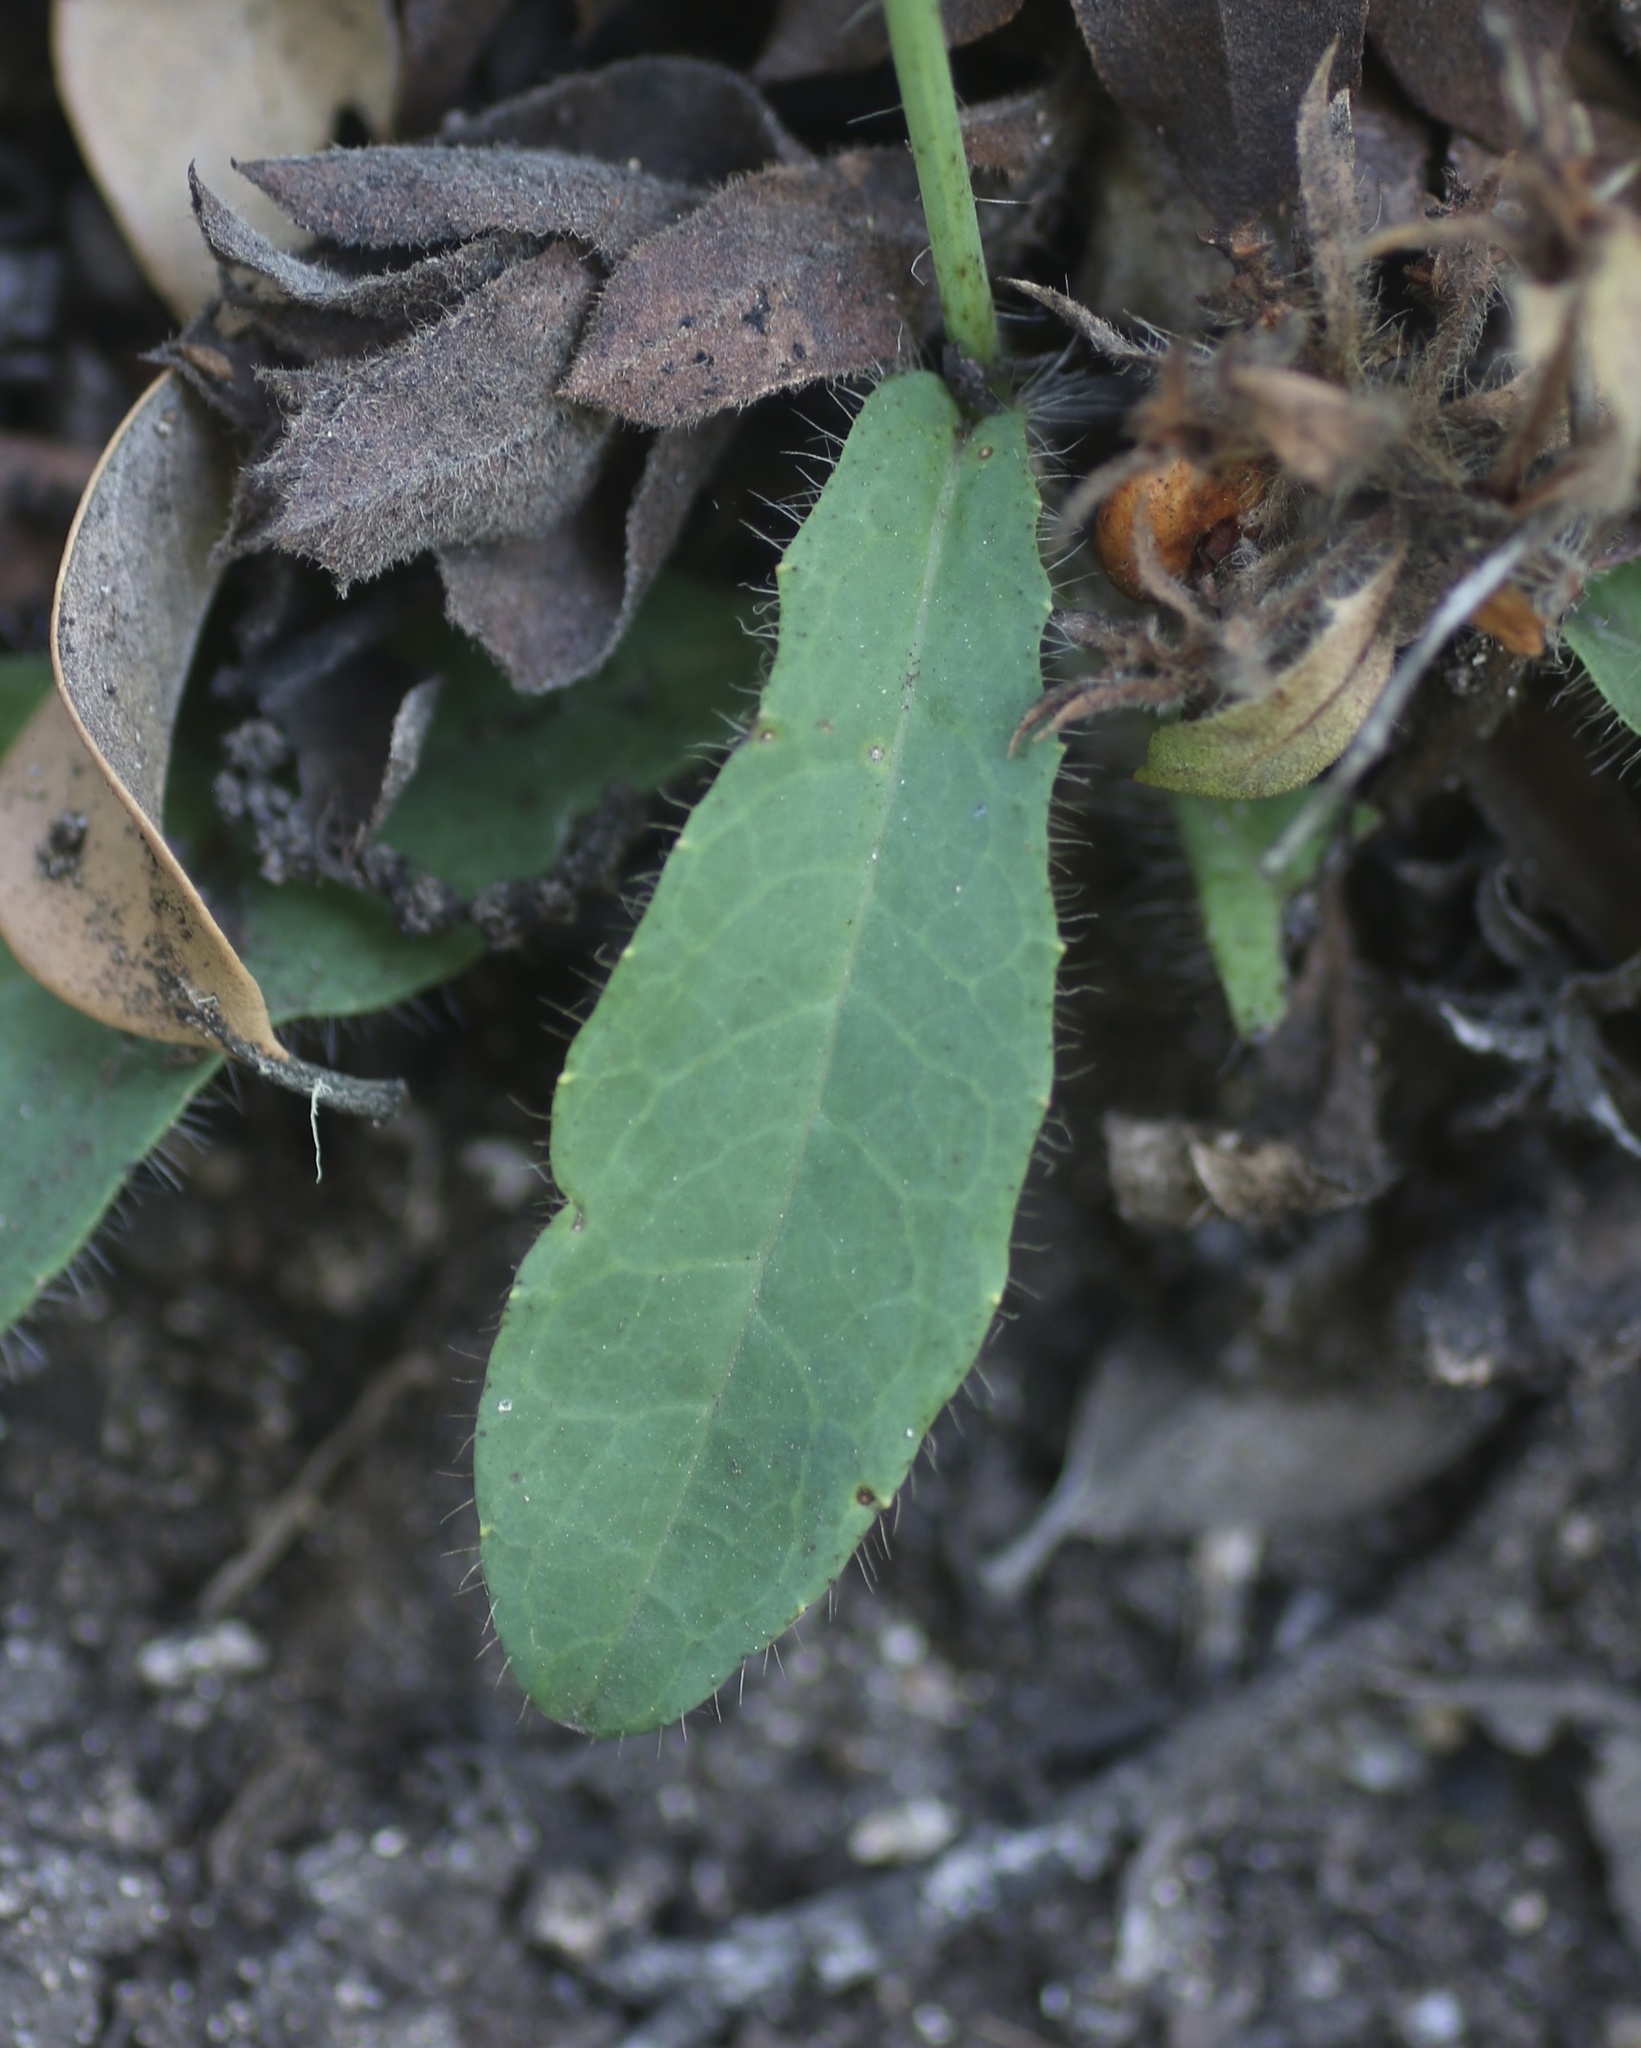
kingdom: Plantae
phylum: Tracheophyta
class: Magnoliopsida
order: Asterales
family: Asteraceae
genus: Hieracium
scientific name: Hieracium albiflorum
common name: White hawkweed
